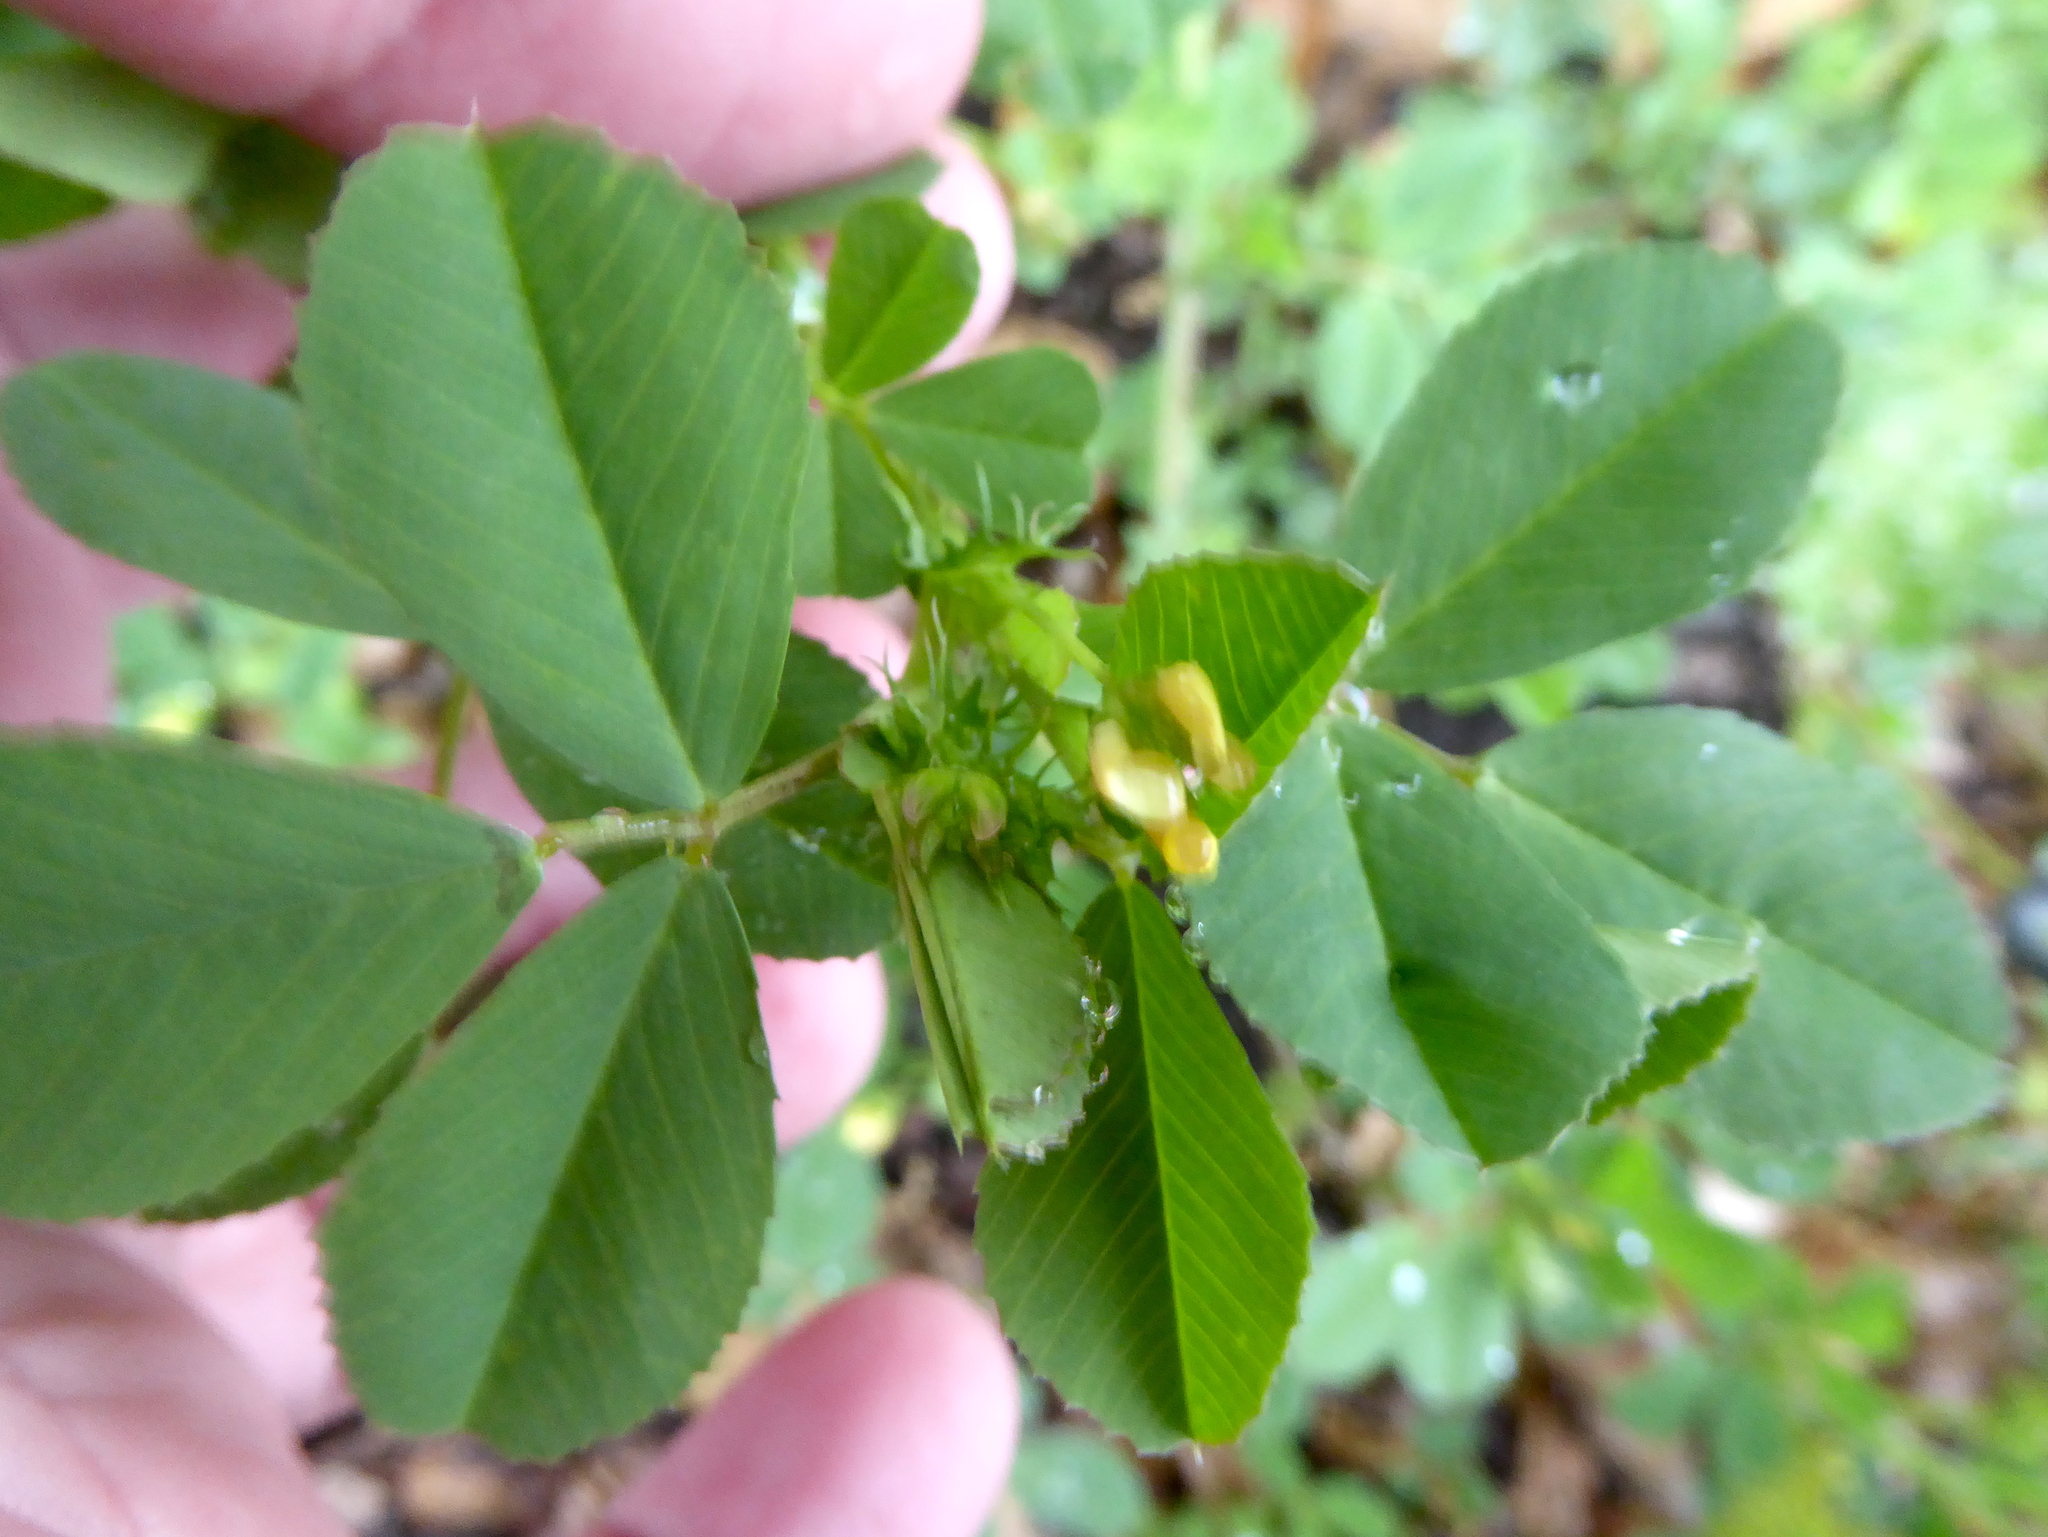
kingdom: Plantae
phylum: Tracheophyta
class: Magnoliopsida
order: Fabales
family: Fabaceae
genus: Medicago
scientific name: Medicago polymorpha
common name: Burclover
